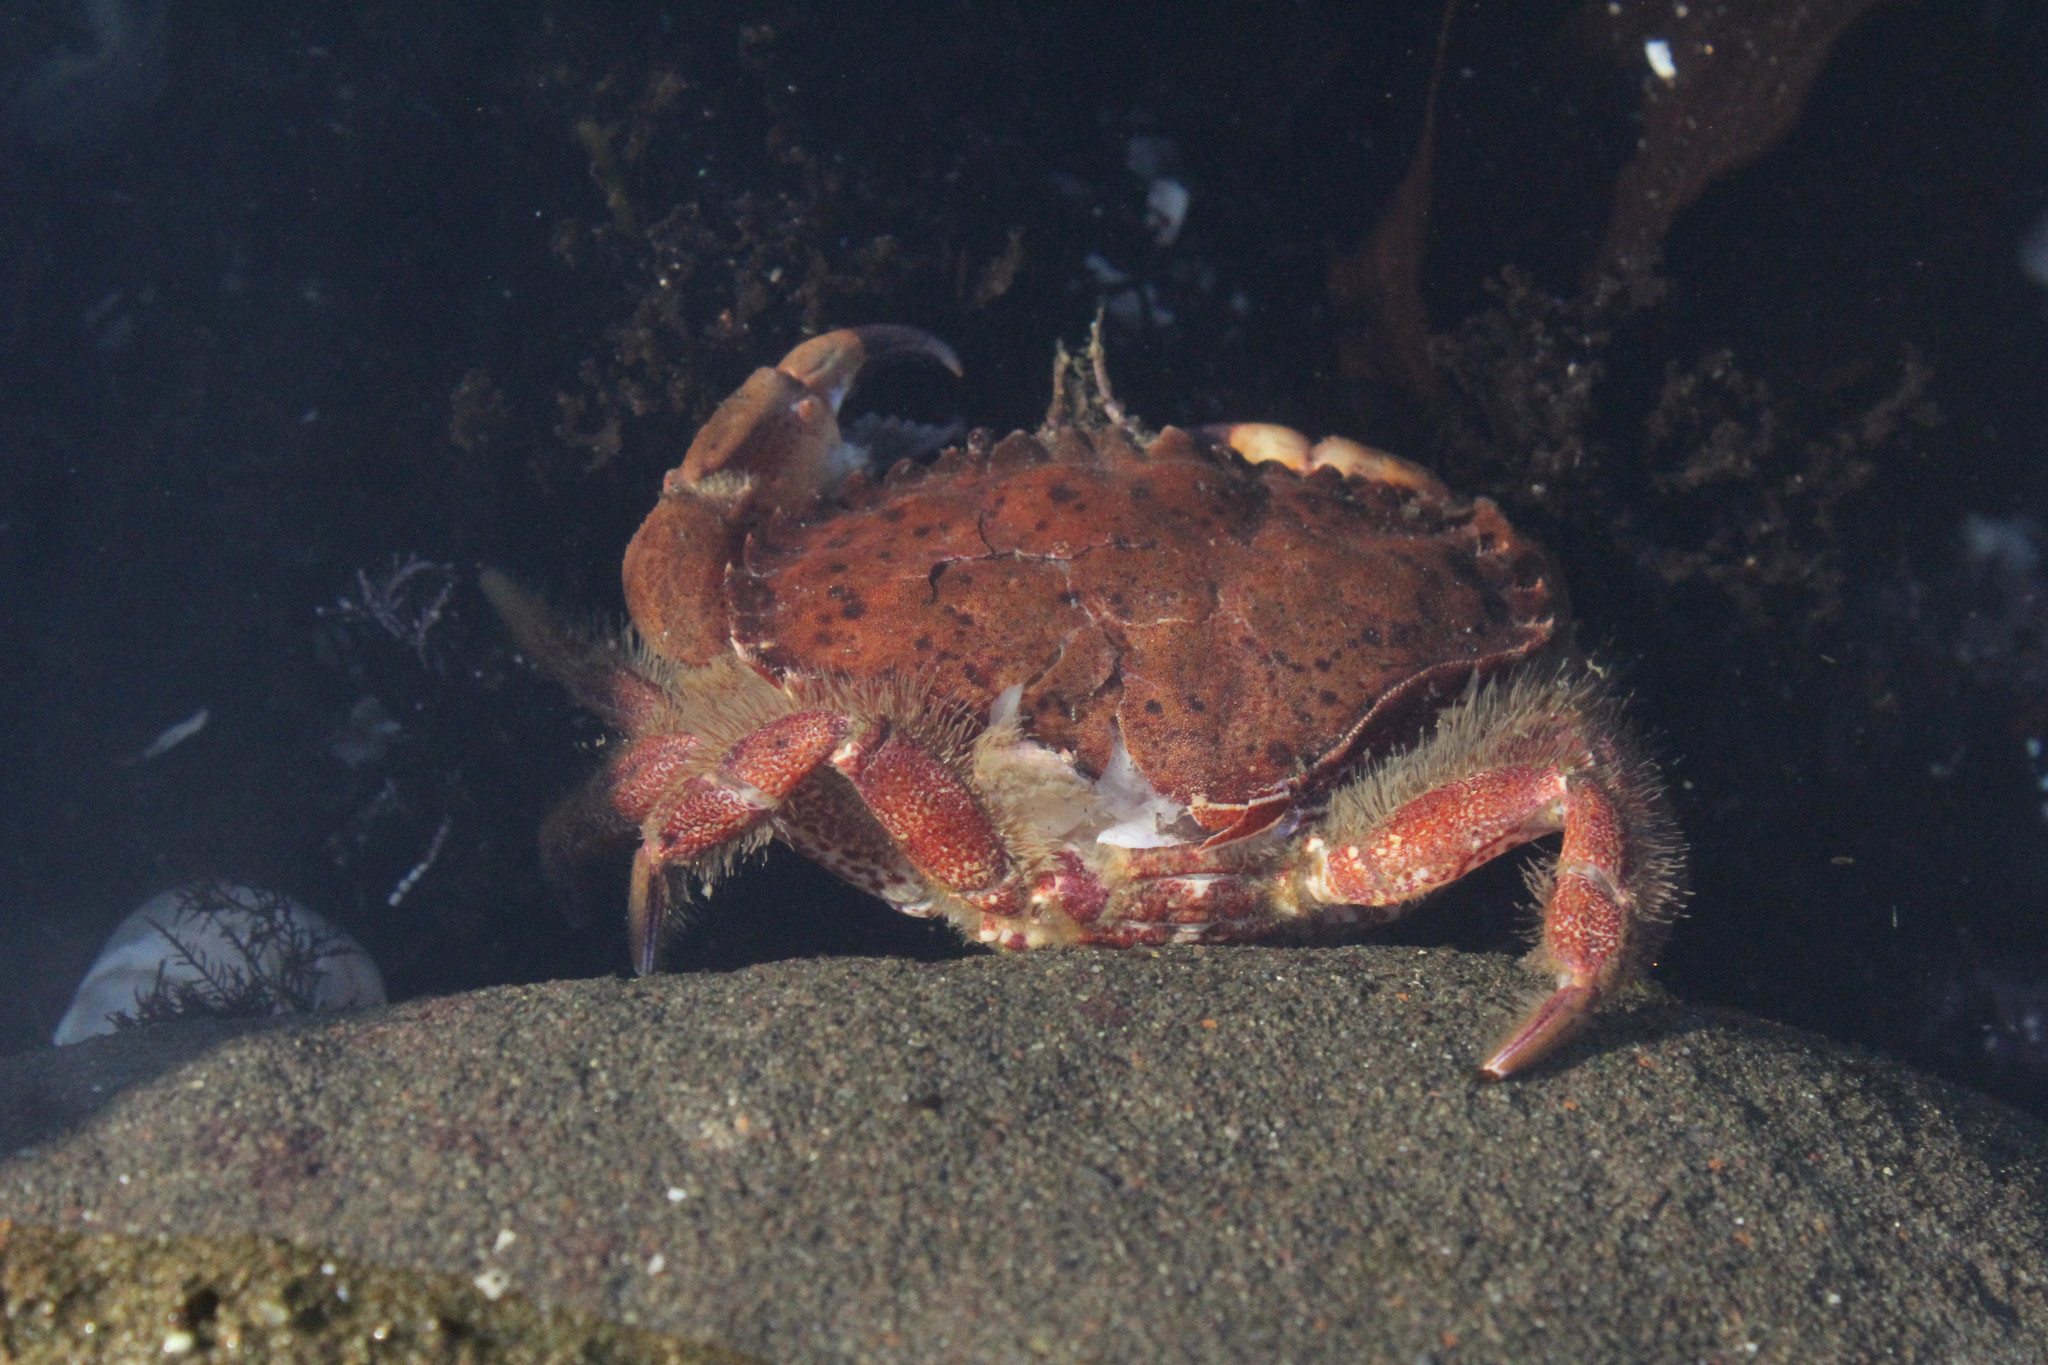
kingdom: Animalia
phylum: Arthropoda
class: Malacostraca
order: Decapoda
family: Cancridae
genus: Romaleon
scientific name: Romaleon antennarium
